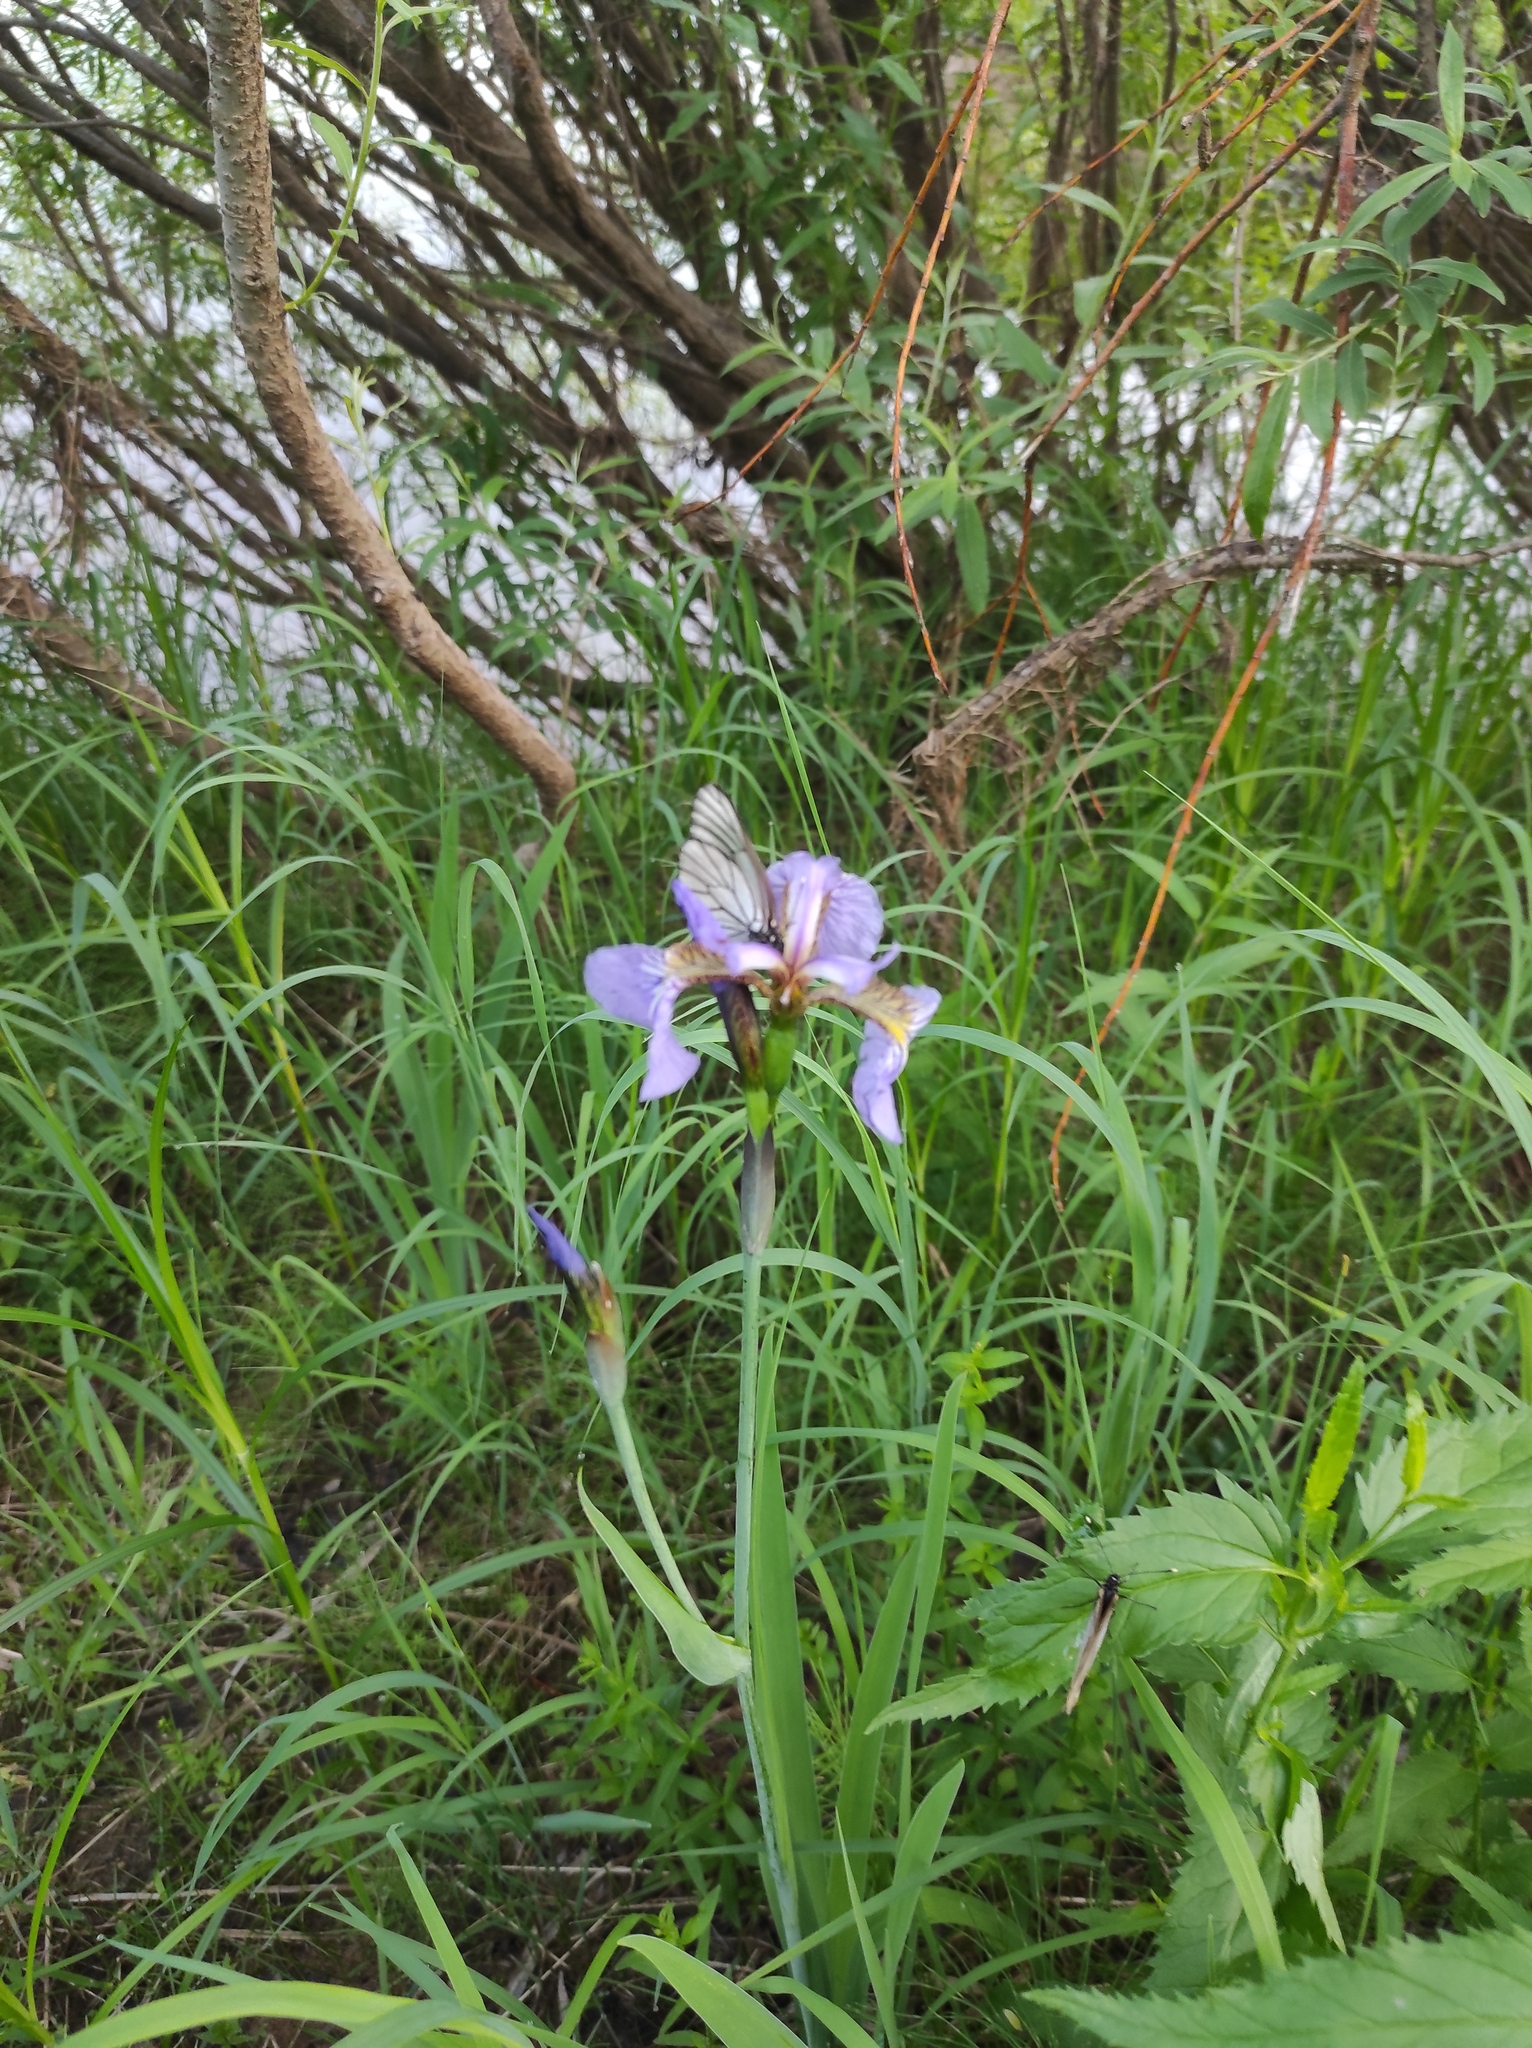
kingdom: Animalia
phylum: Arthropoda
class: Insecta
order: Lepidoptera
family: Pieridae
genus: Aporia
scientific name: Aporia crataegi
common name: Black-veined white
